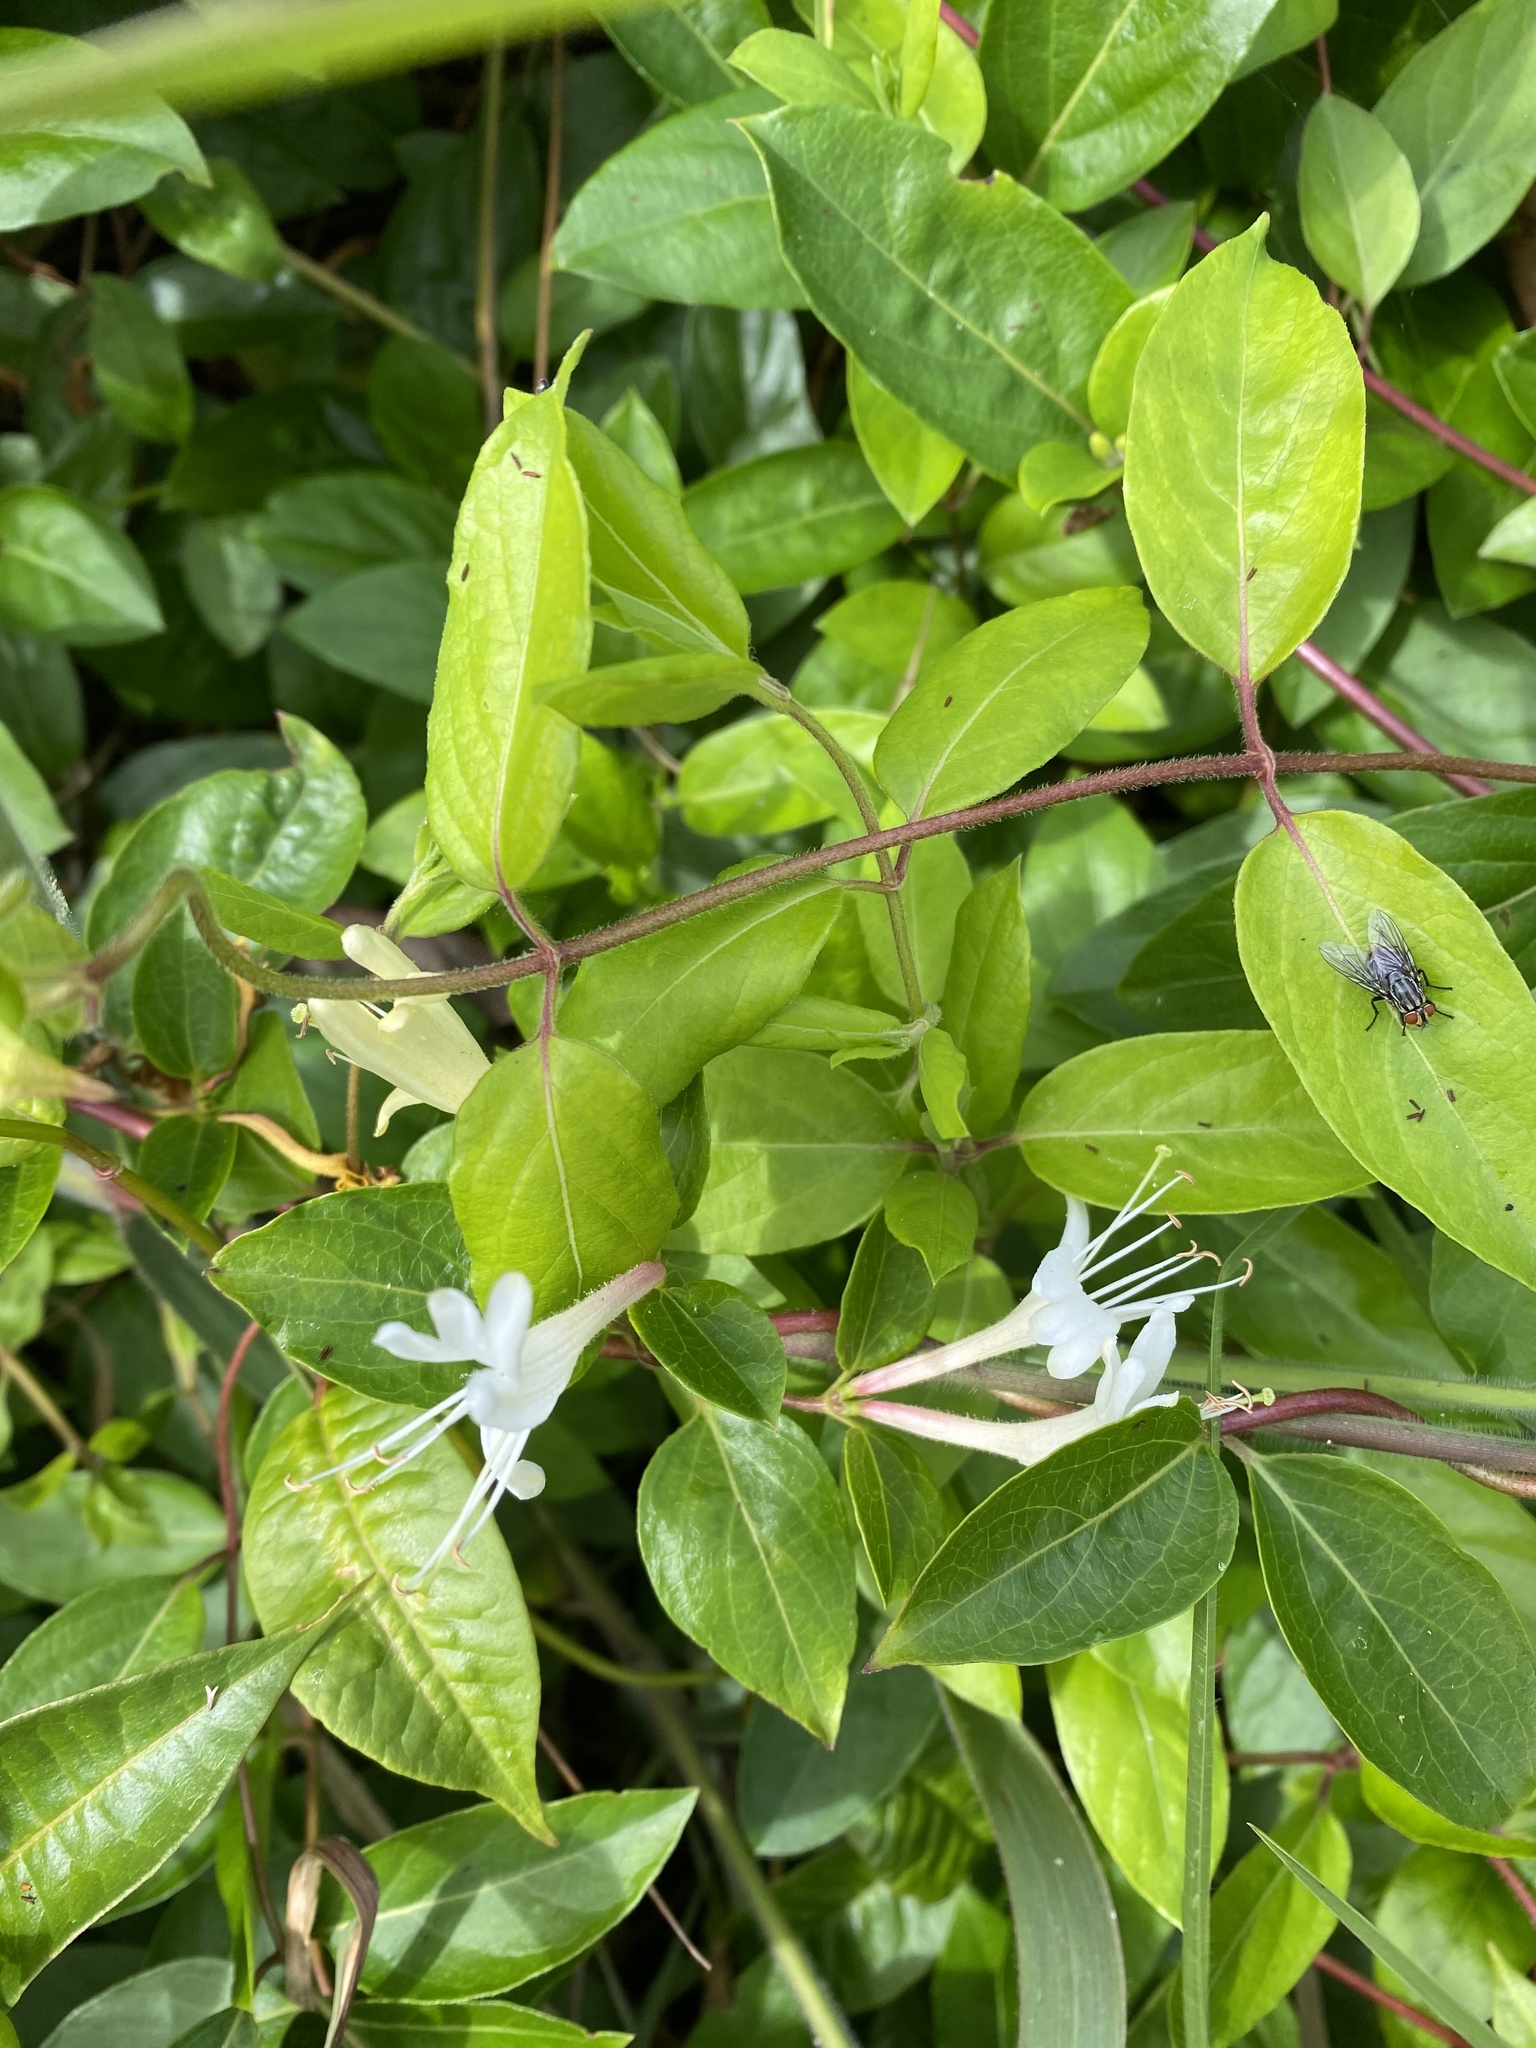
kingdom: Plantae
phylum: Tracheophyta
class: Magnoliopsida
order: Dipsacales
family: Caprifoliaceae
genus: Lonicera
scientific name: Lonicera japonica
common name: Japanese honeysuckle
